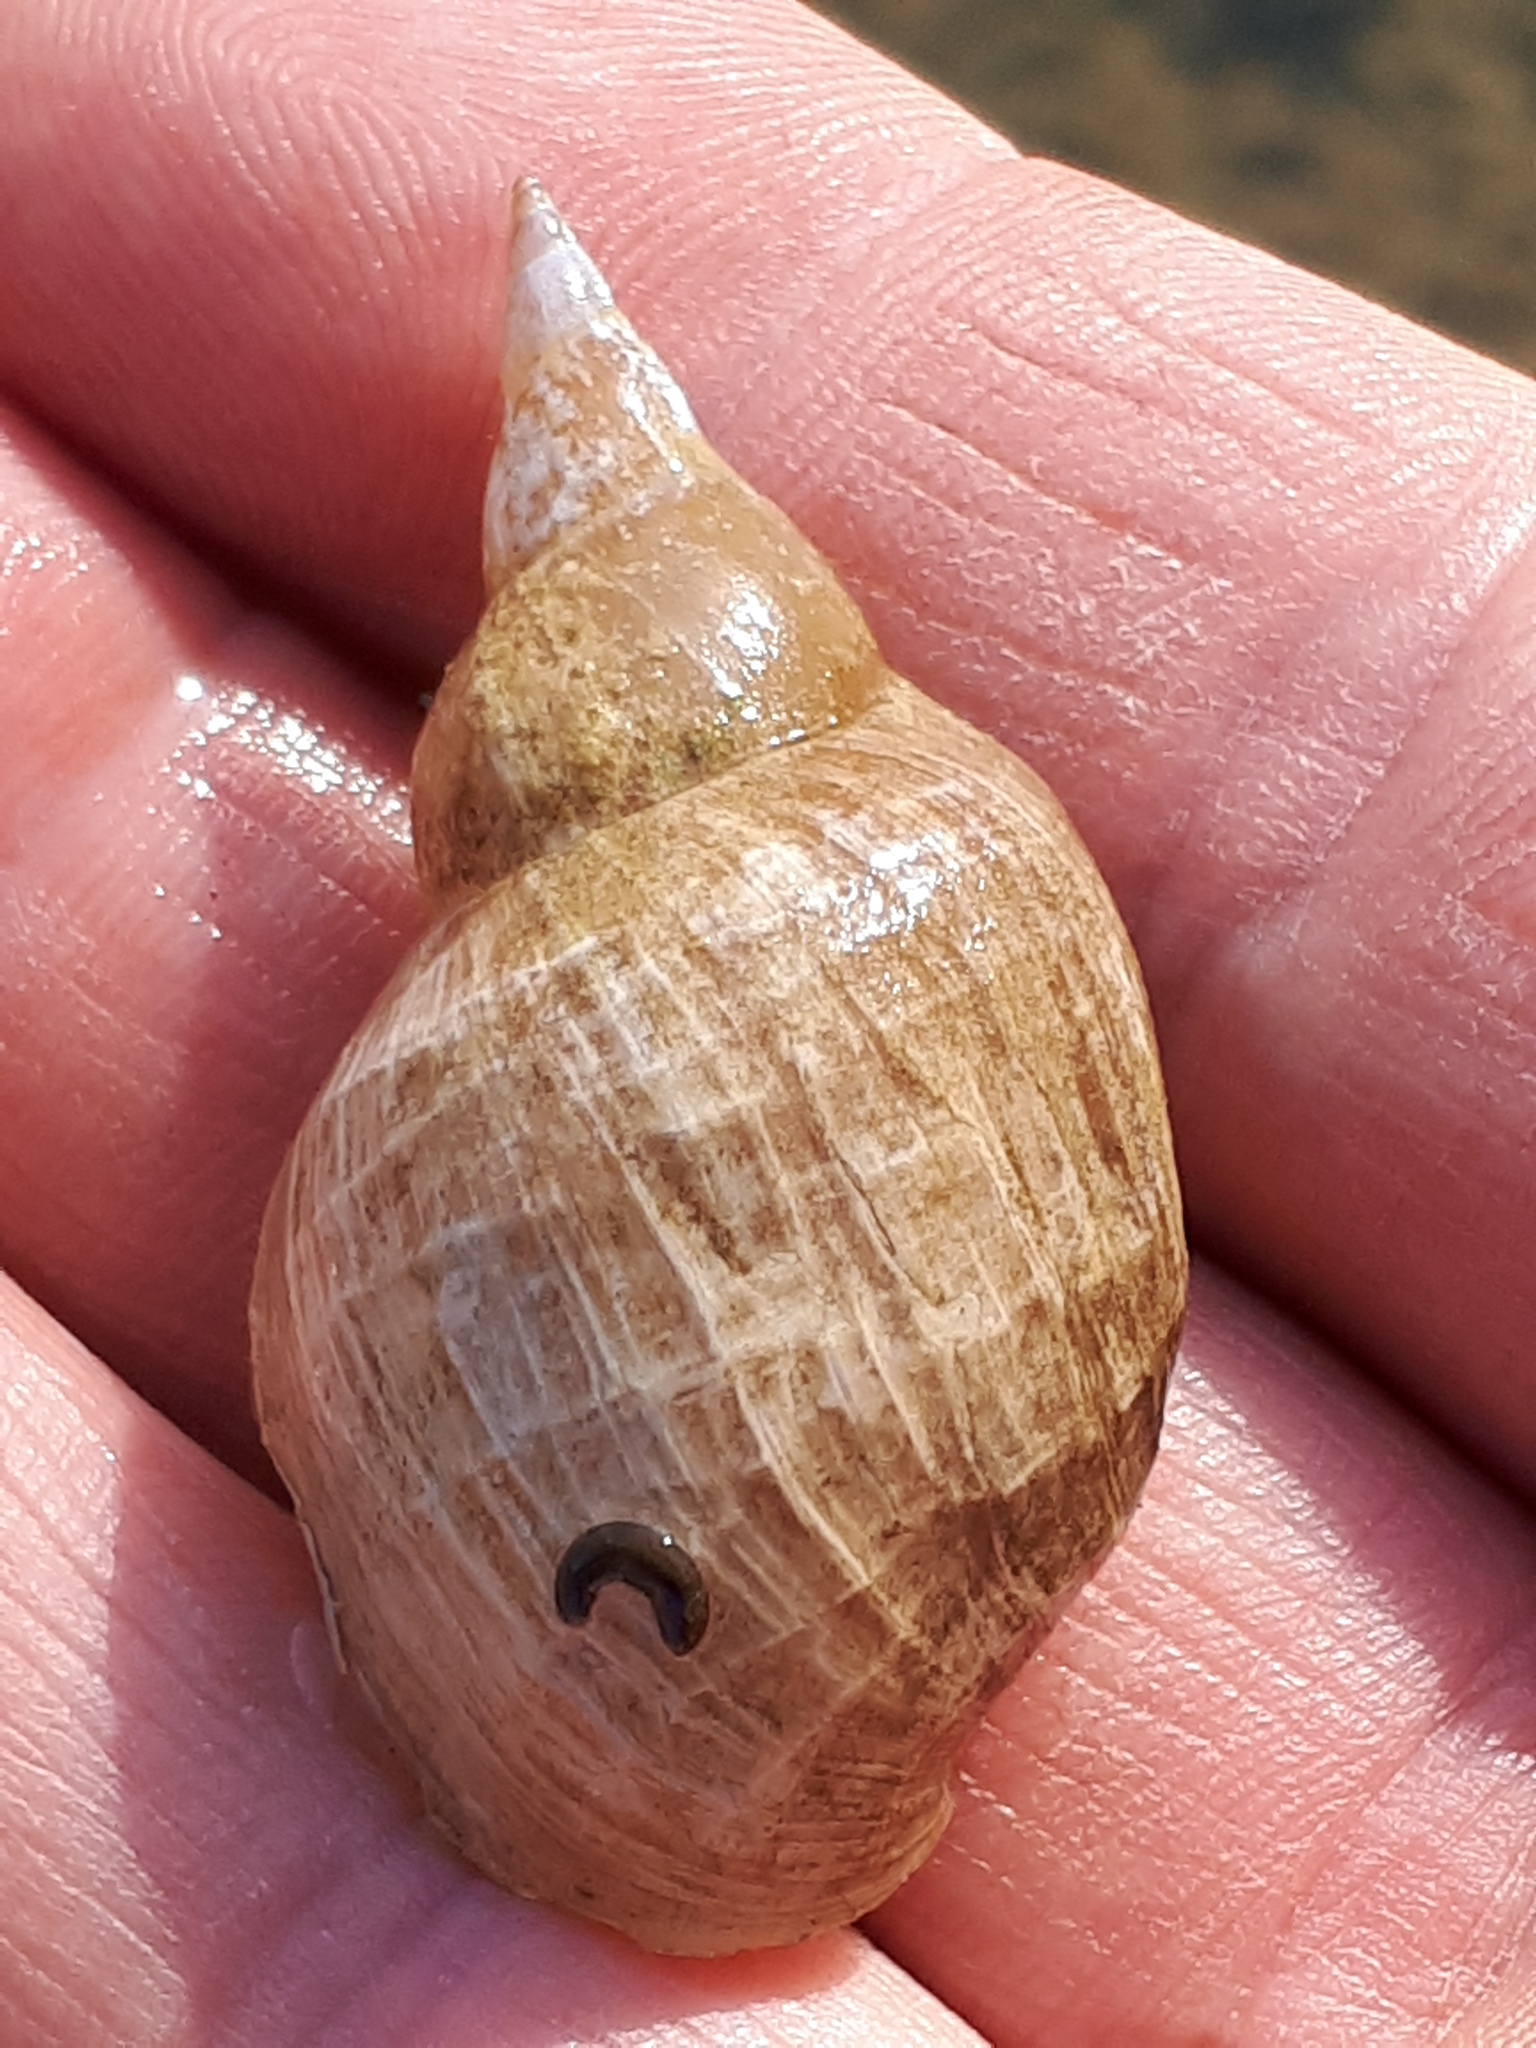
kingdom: Animalia
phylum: Mollusca
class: Gastropoda
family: Lymnaeidae
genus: Lymnaea
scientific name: Lymnaea stagnalis
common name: Great pond snail
